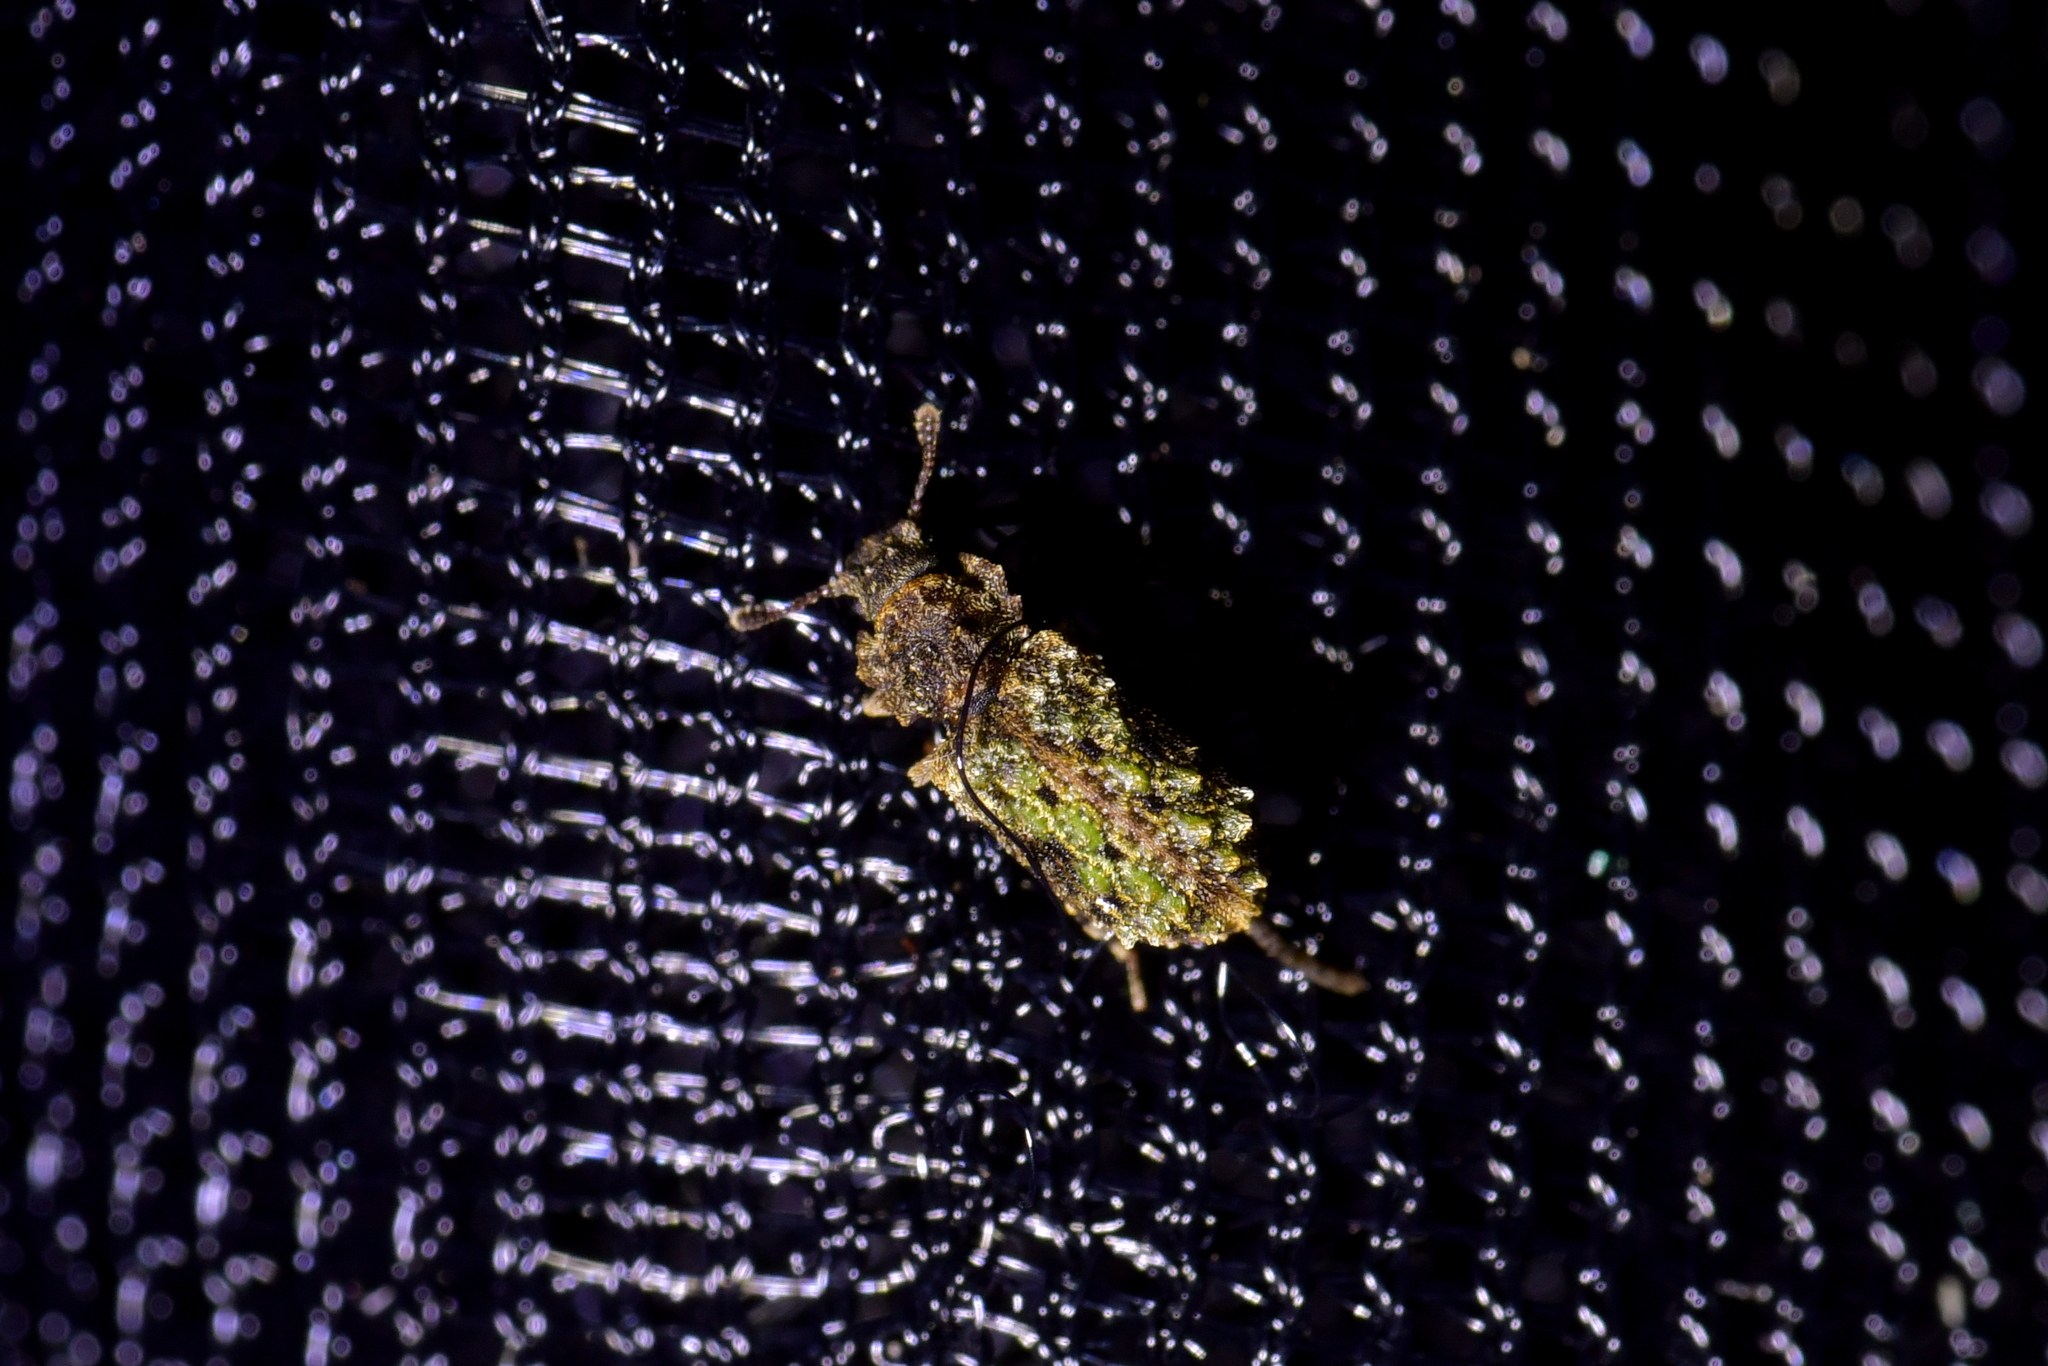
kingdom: Animalia
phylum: Arthropoda
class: Insecta
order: Coleoptera
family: Zopheridae
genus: Pristoderus
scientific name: Pristoderus
